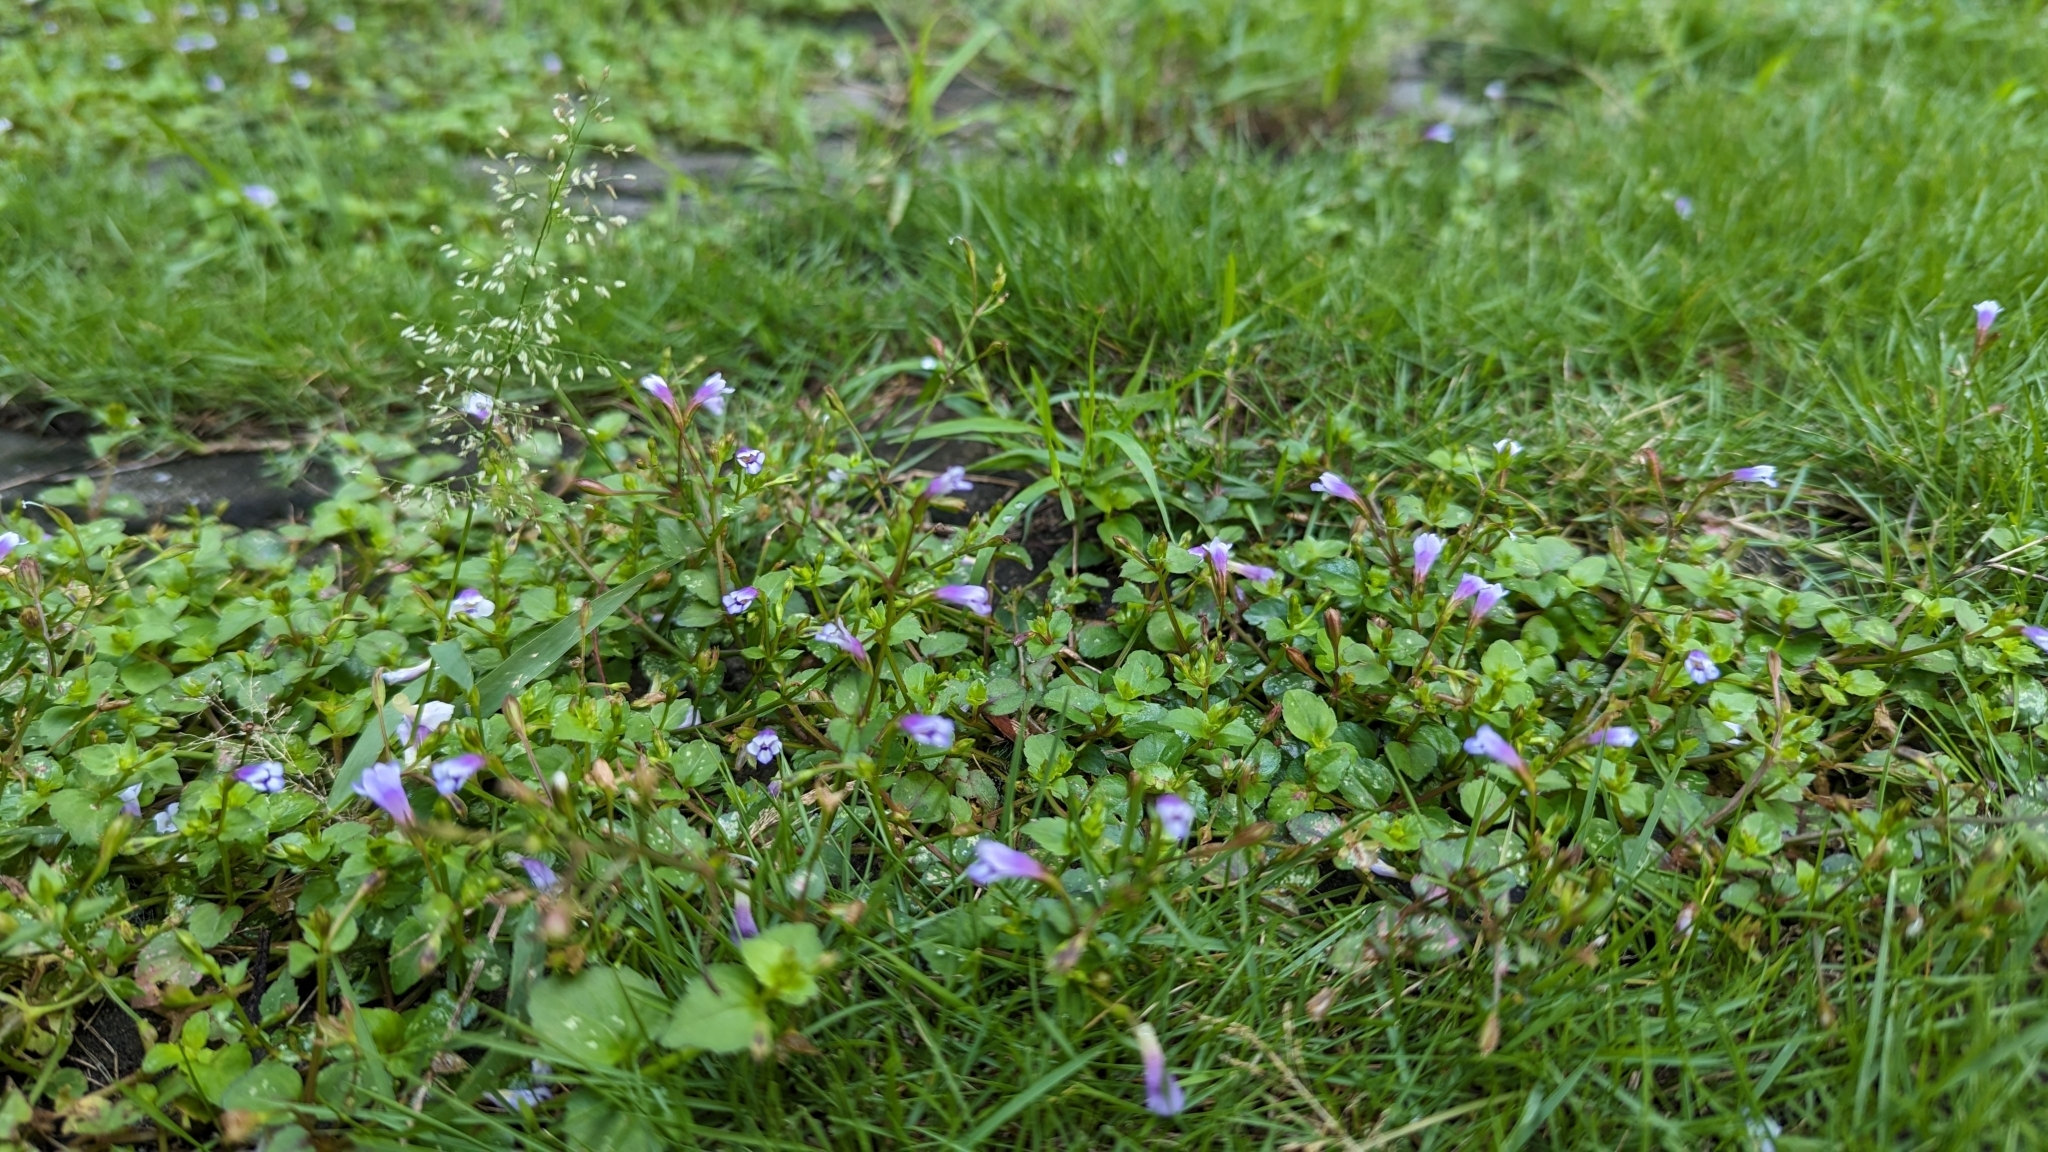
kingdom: Plantae
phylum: Tracheophyta
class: Magnoliopsida
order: Lamiales
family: Linderniaceae
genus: Torenia
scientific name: Torenia crustacea
